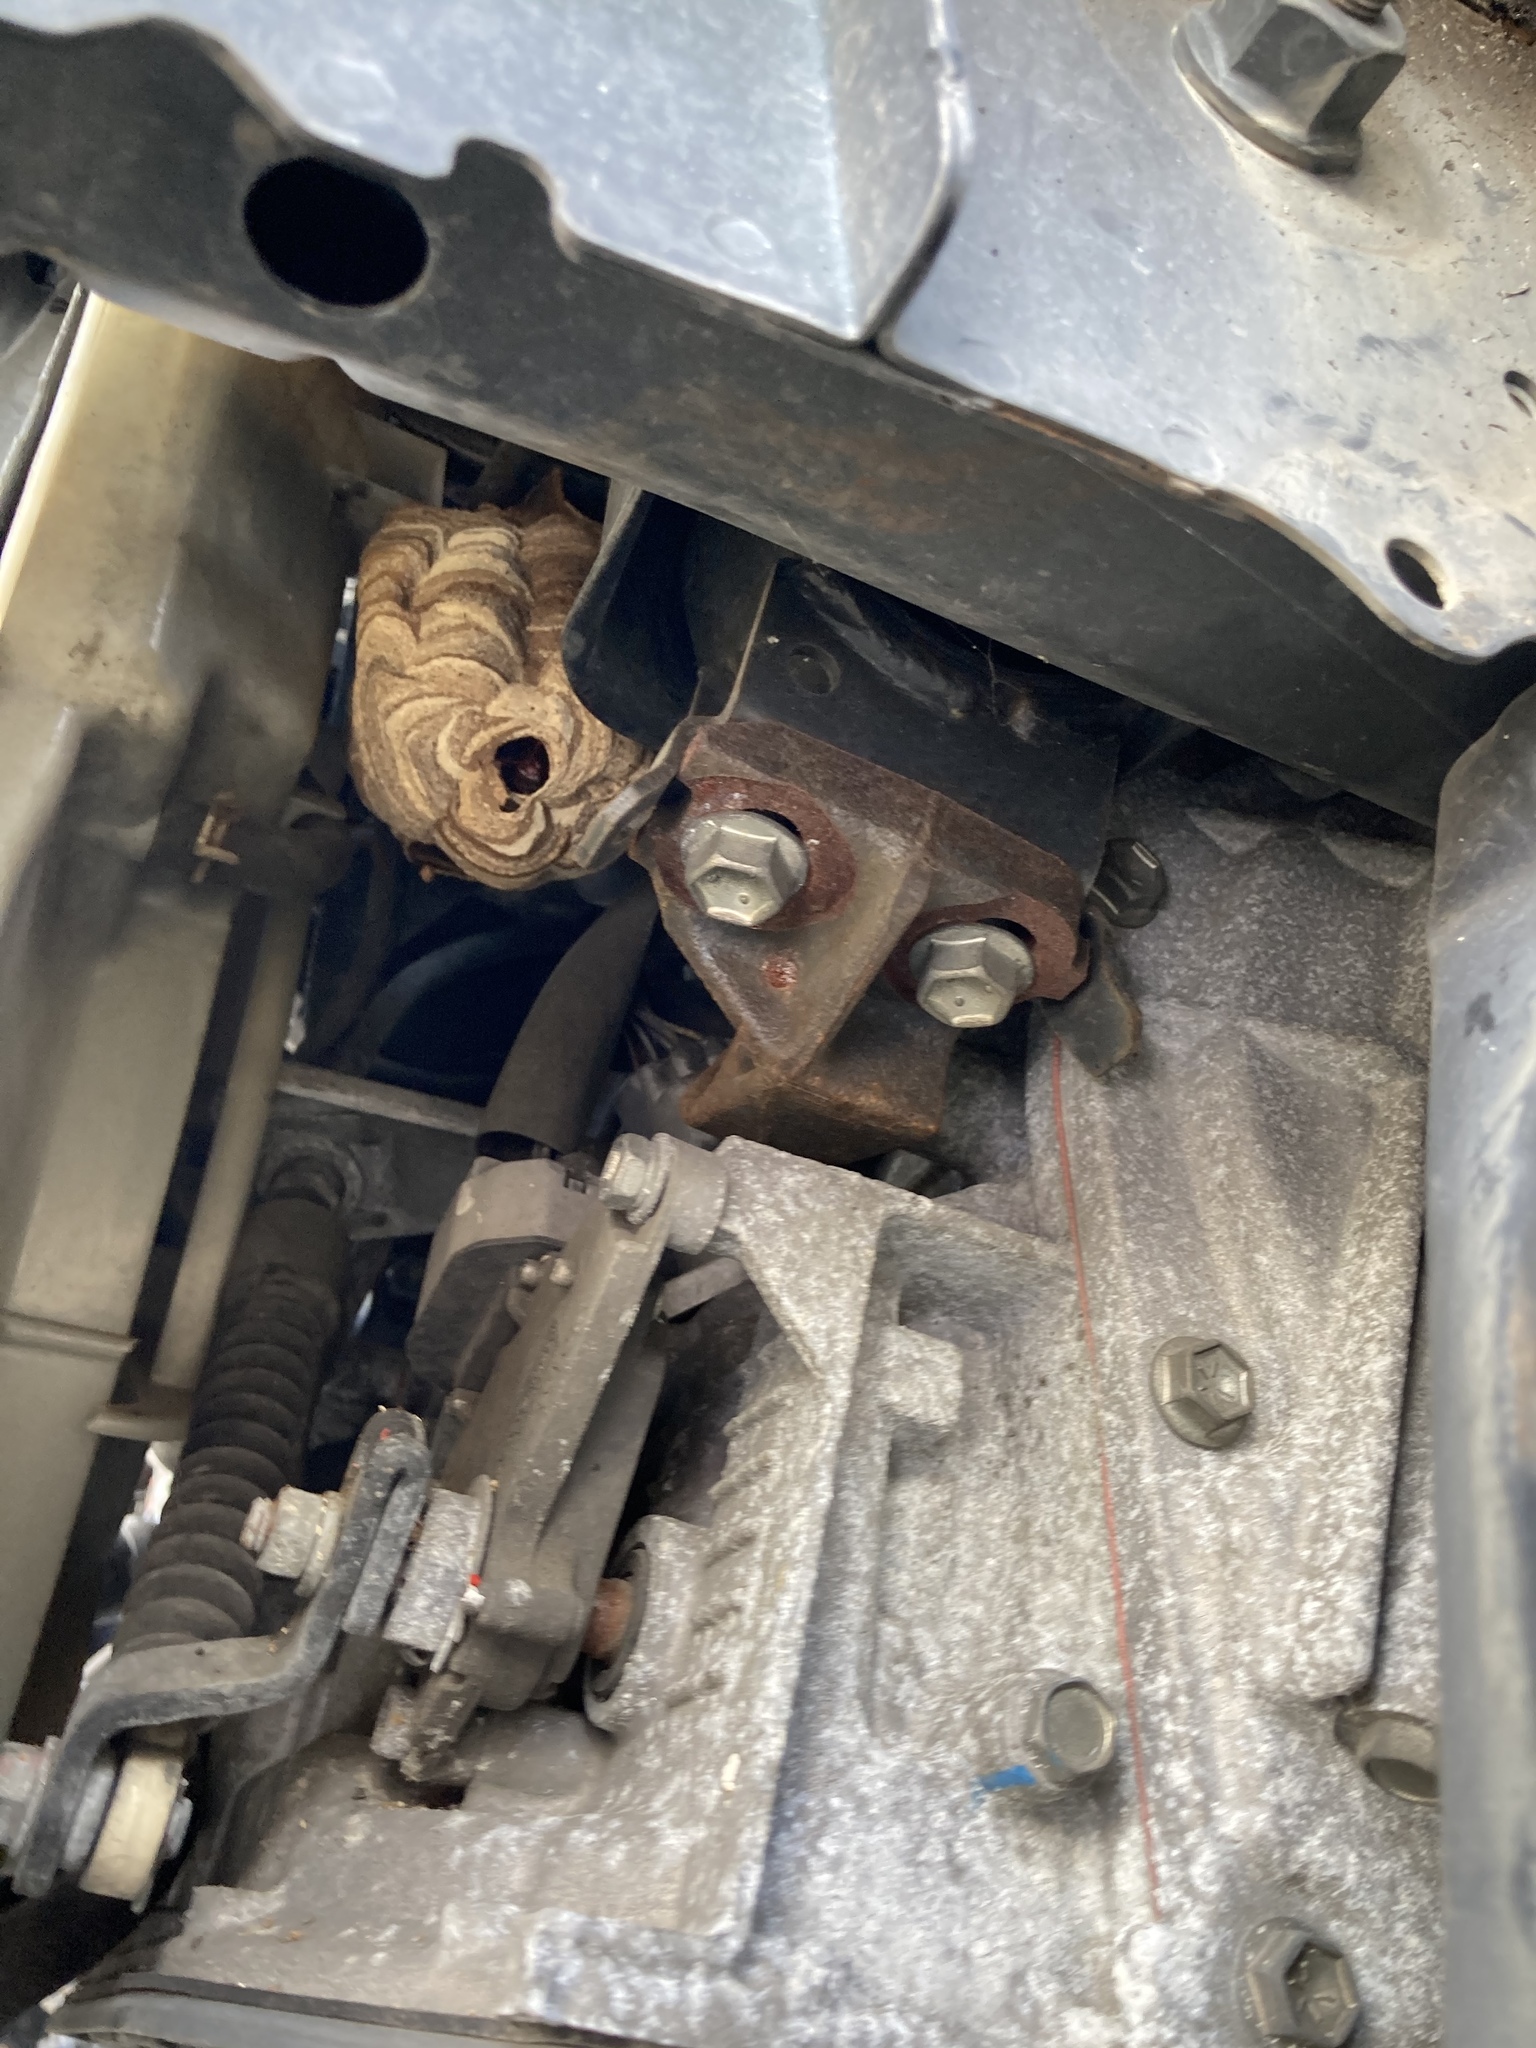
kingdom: Animalia
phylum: Arthropoda
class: Insecta
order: Hymenoptera
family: Vespidae
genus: Vespa
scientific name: Vespa affinis
